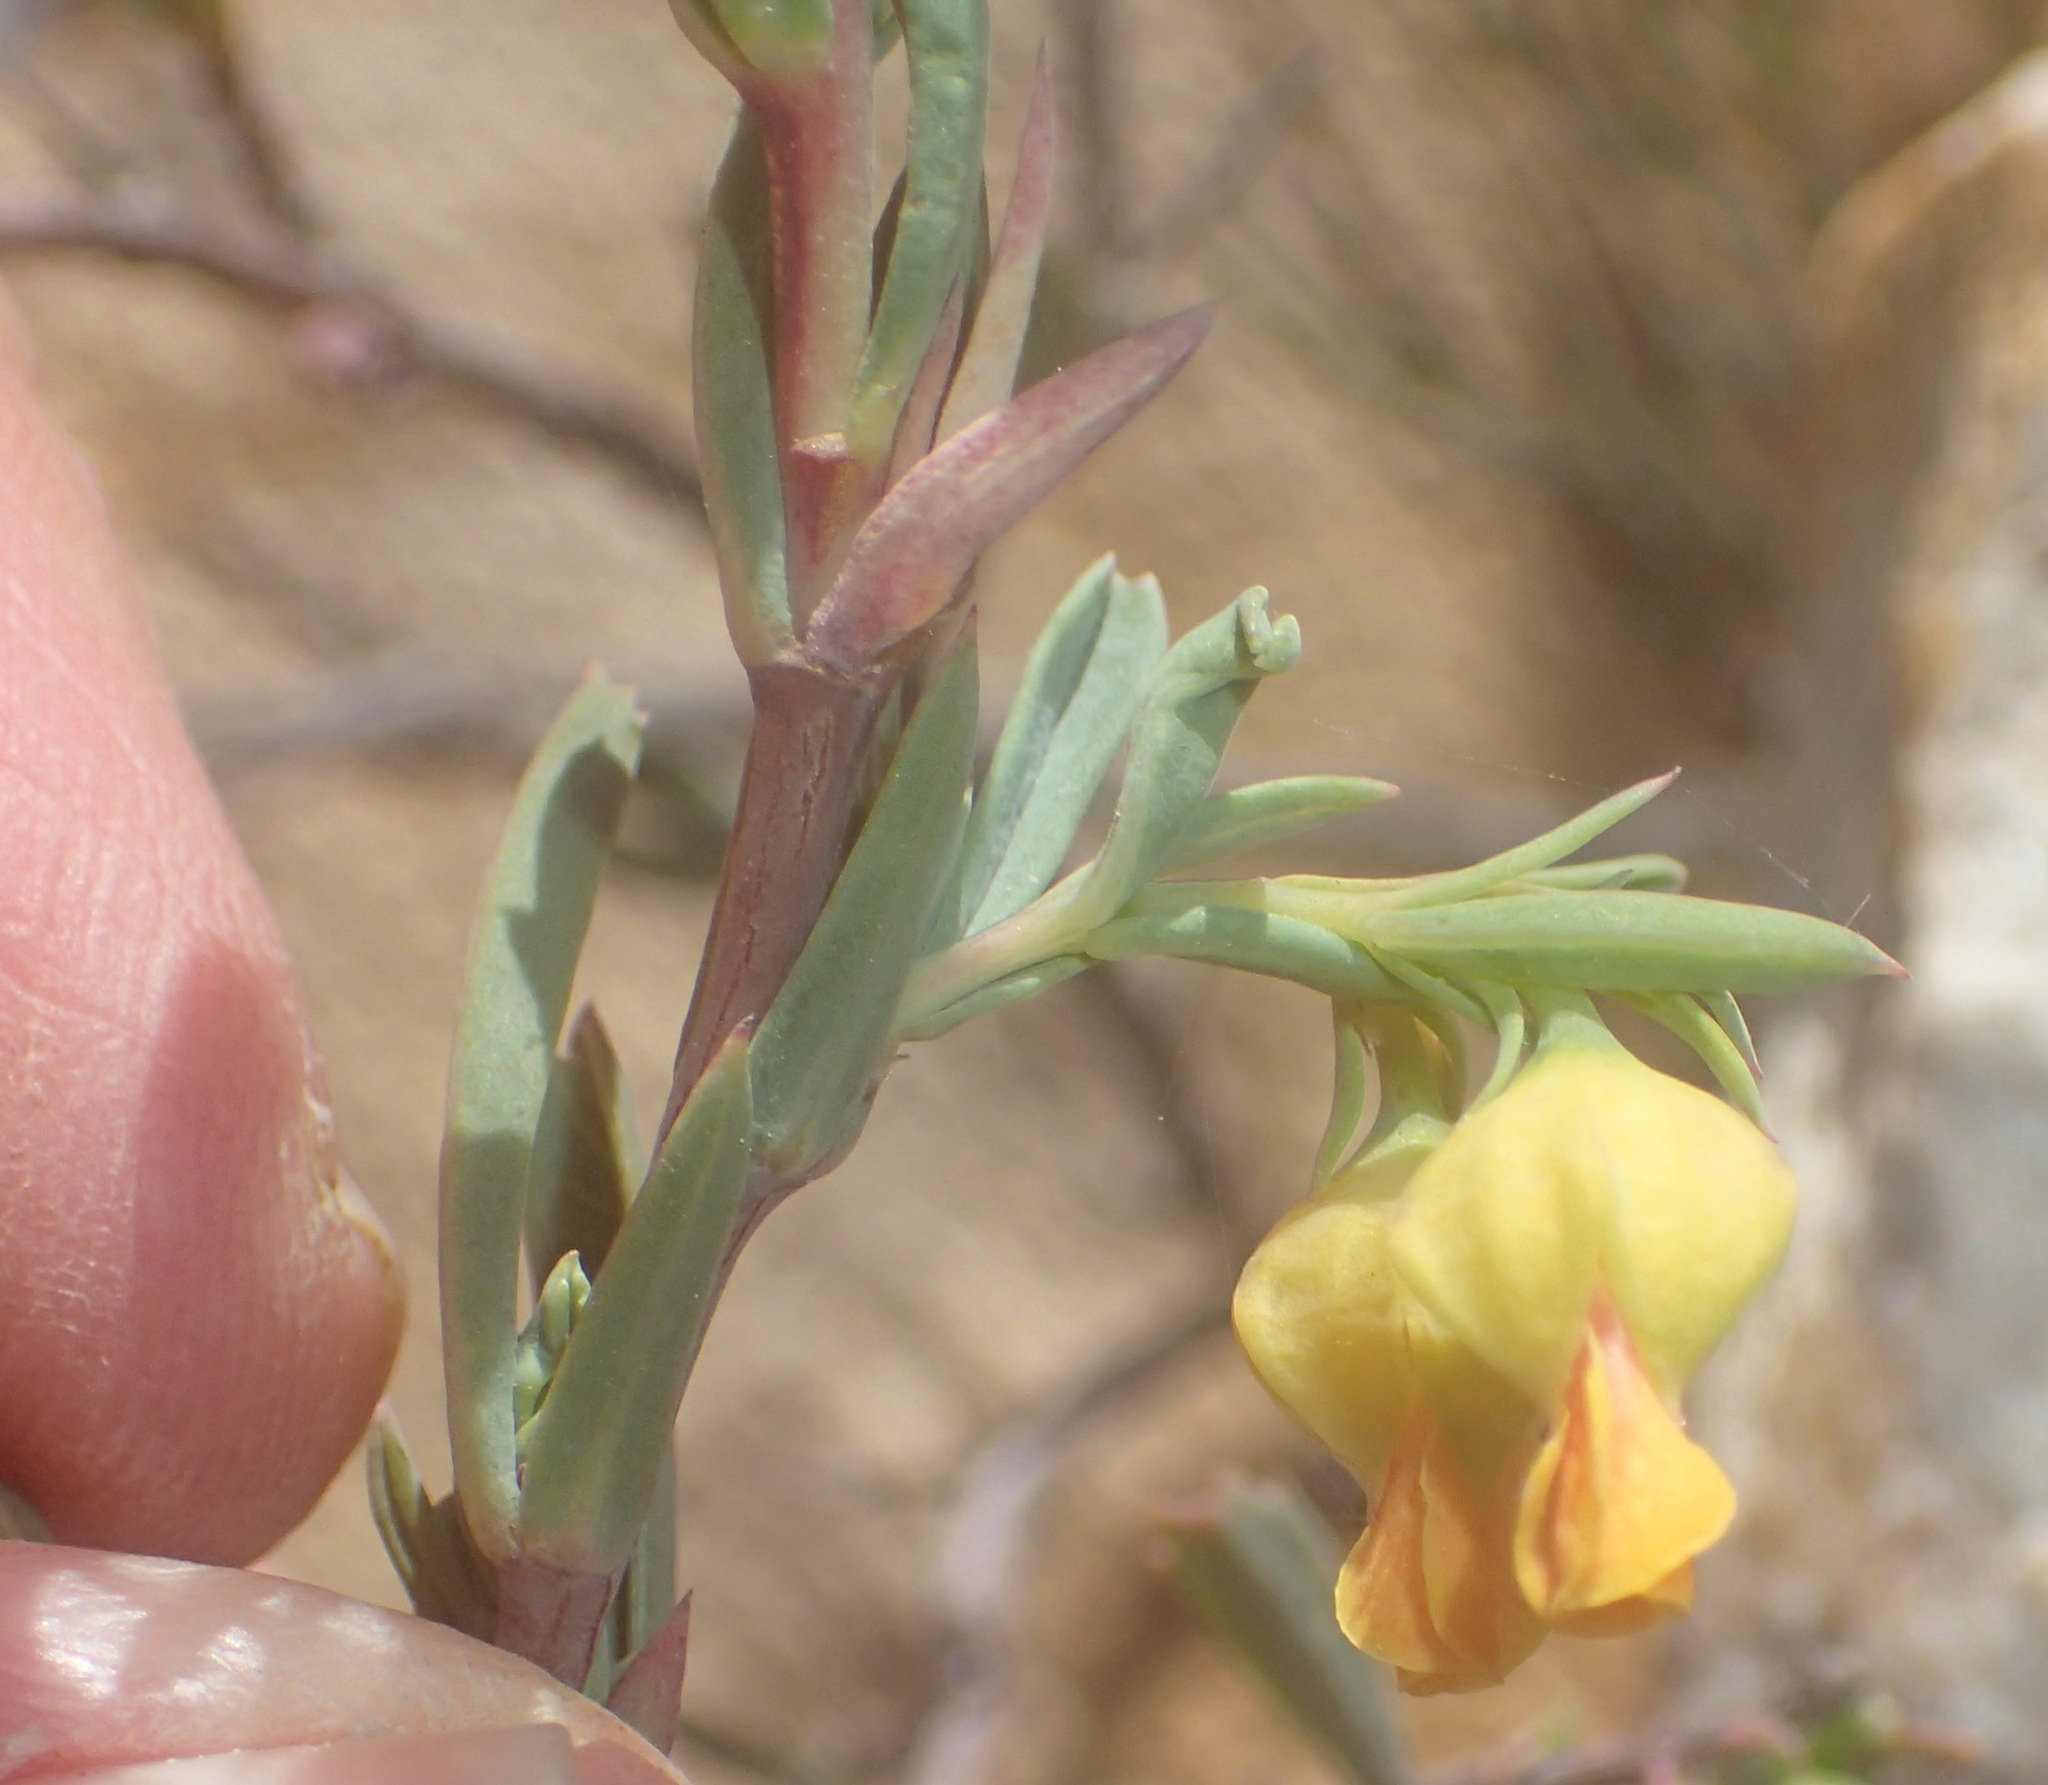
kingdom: Plantae
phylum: Tracheophyta
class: Magnoliopsida
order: Malvales
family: Malvaceae
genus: Hermannia
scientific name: Hermannia
